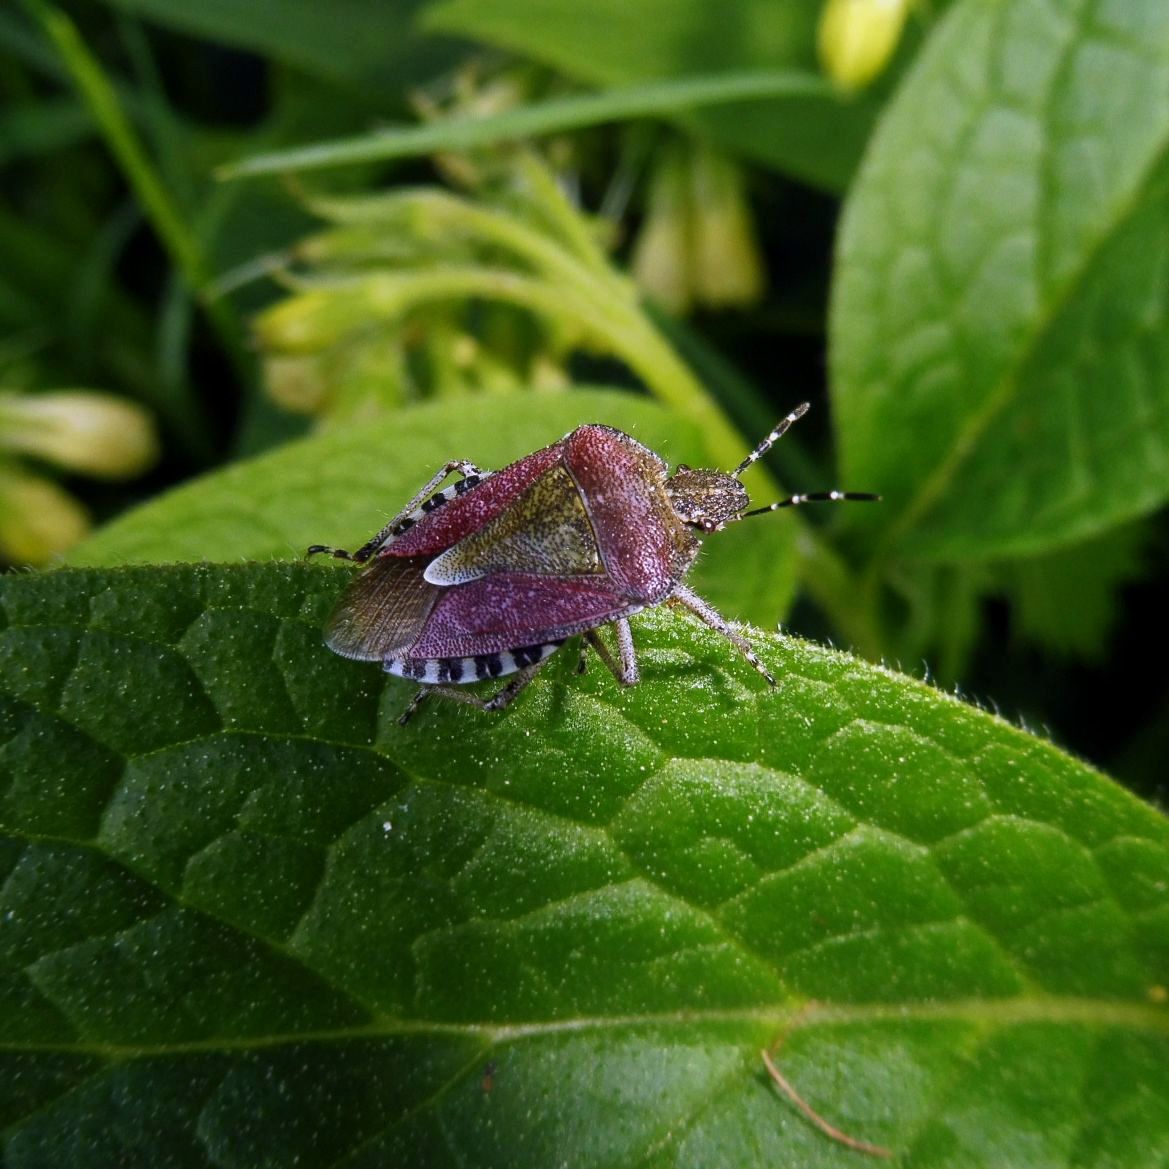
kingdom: Animalia
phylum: Arthropoda
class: Insecta
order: Hemiptera
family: Pentatomidae
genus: Dolycoris
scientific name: Dolycoris baccarum
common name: Sloe bug
